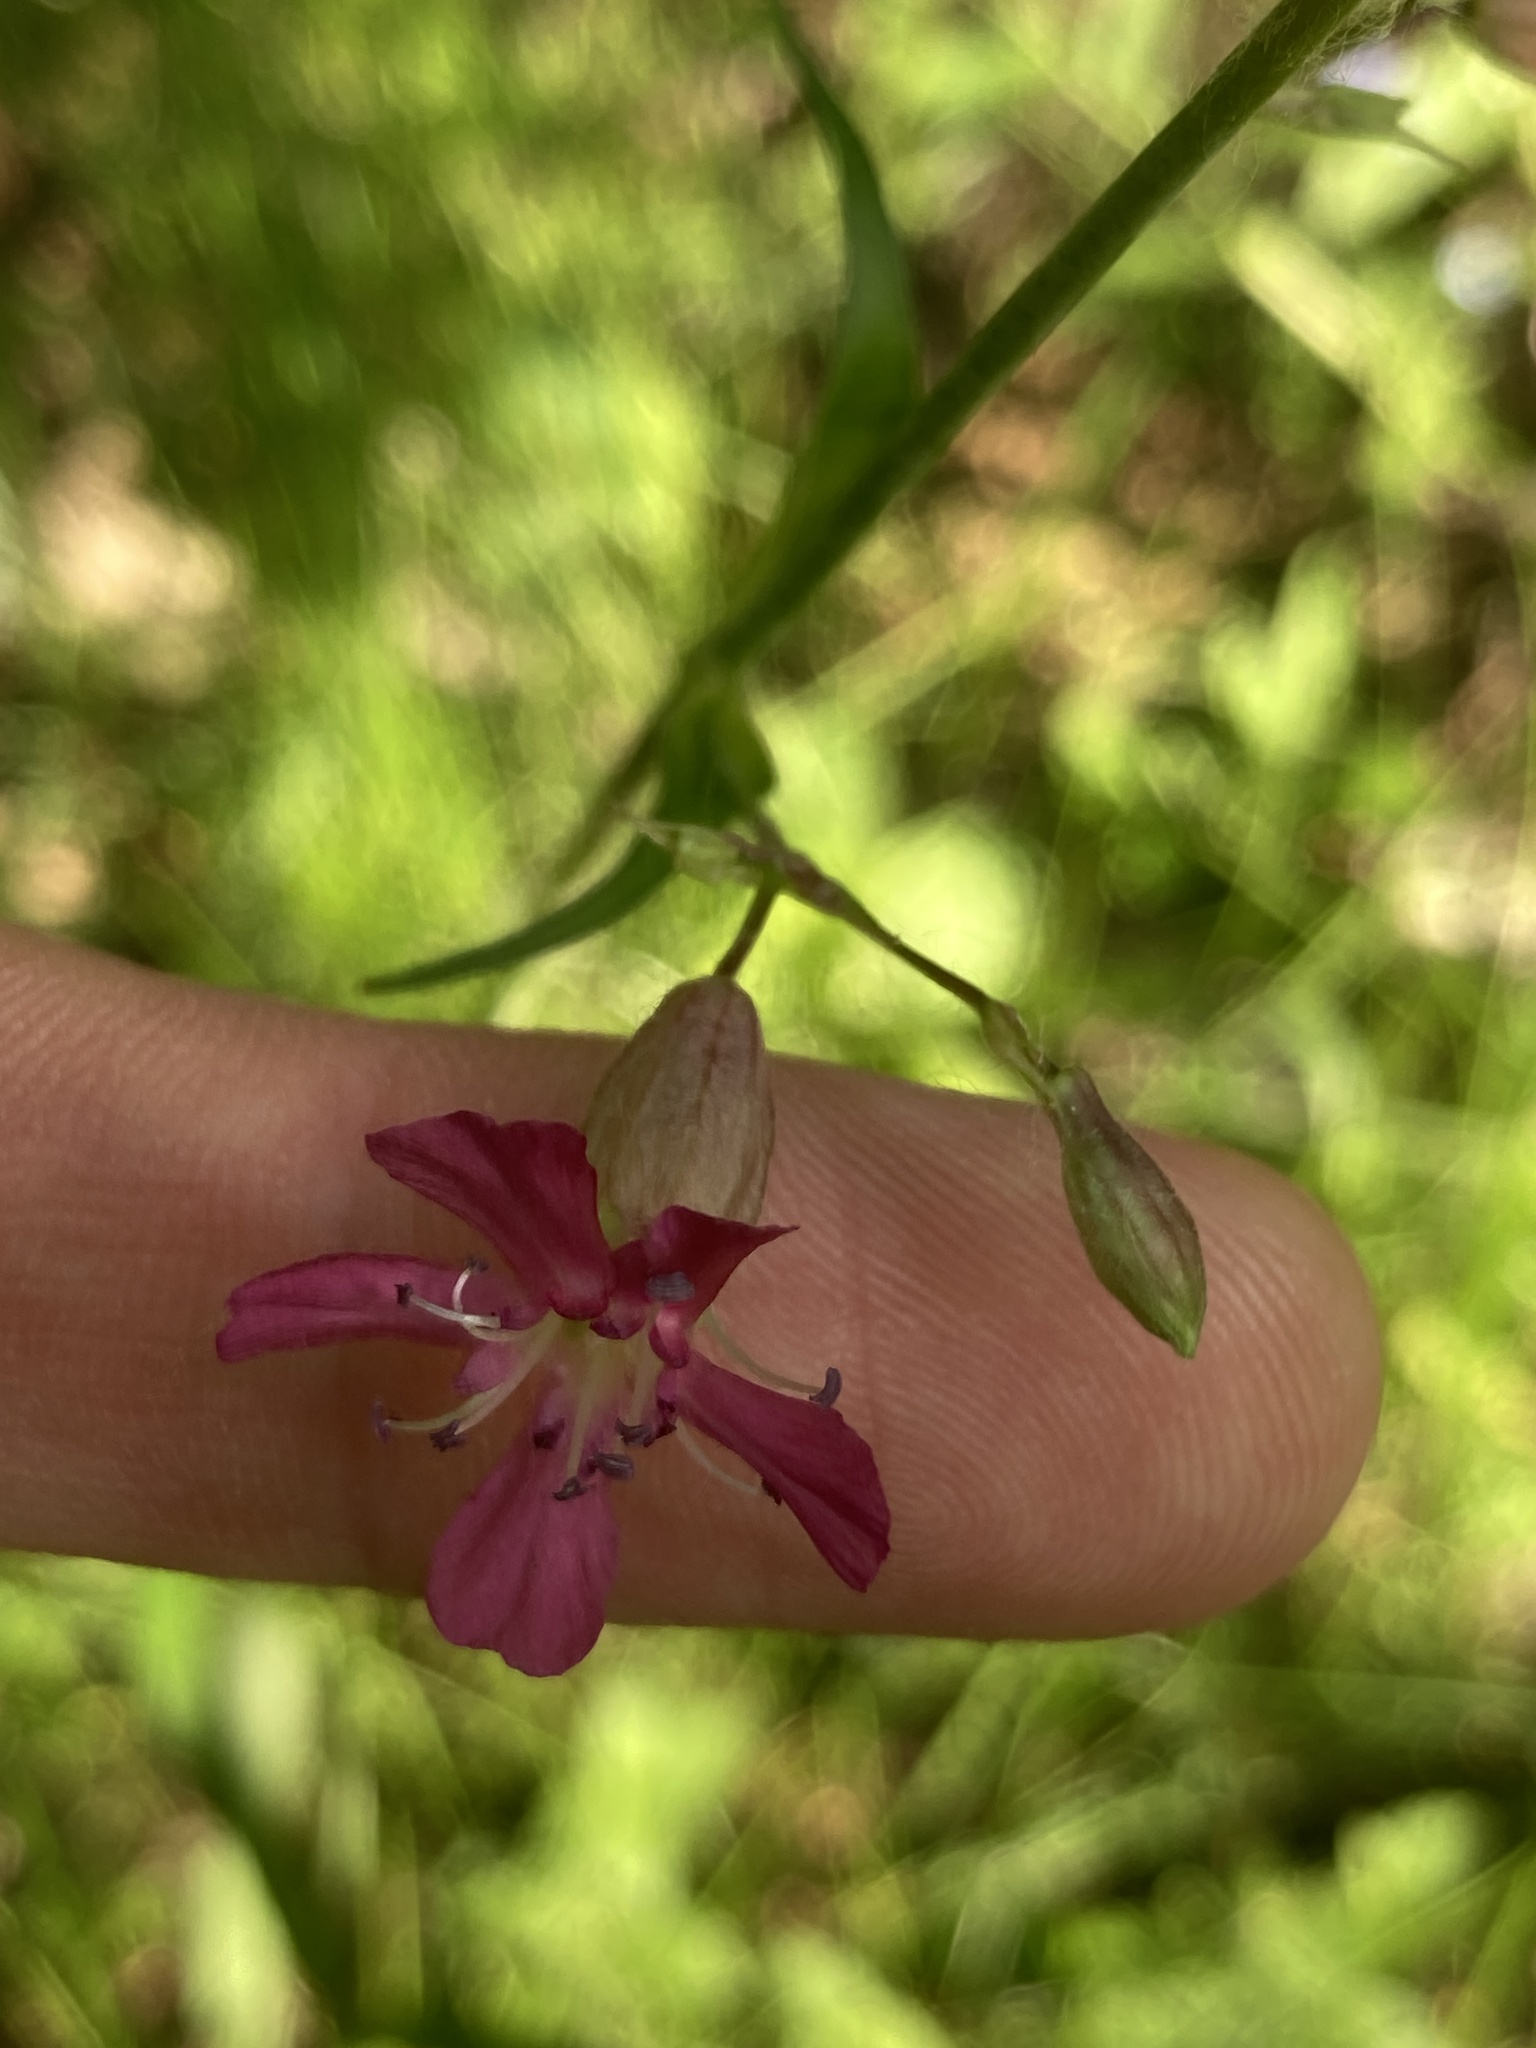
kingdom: Plantae
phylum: Tracheophyta
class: Magnoliopsida
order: Caryophyllales
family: Caryophyllaceae
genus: Viscaria
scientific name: Viscaria vulgaris
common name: Clammy campion
